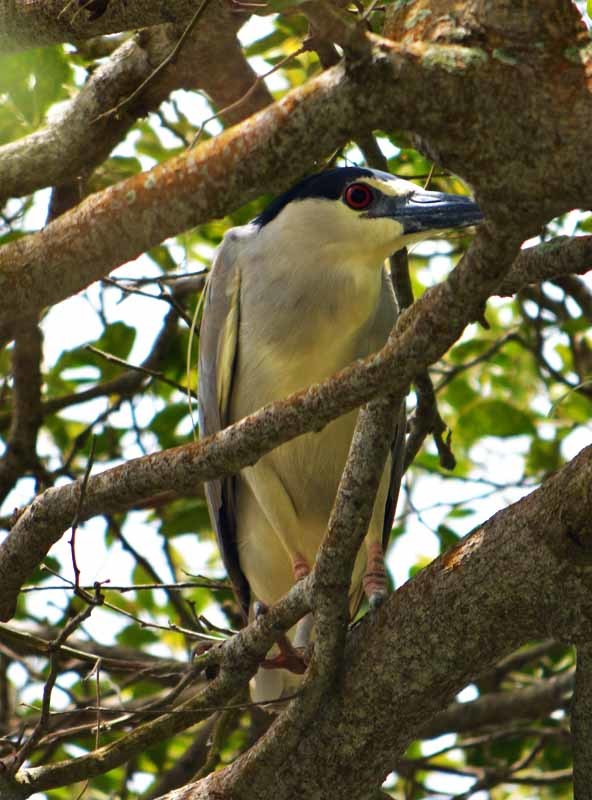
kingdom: Animalia
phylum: Chordata
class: Aves
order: Pelecaniformes
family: Ardeidae
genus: Nycticorax
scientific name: Nycticorax nycticorax
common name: Black-crowned night heron
